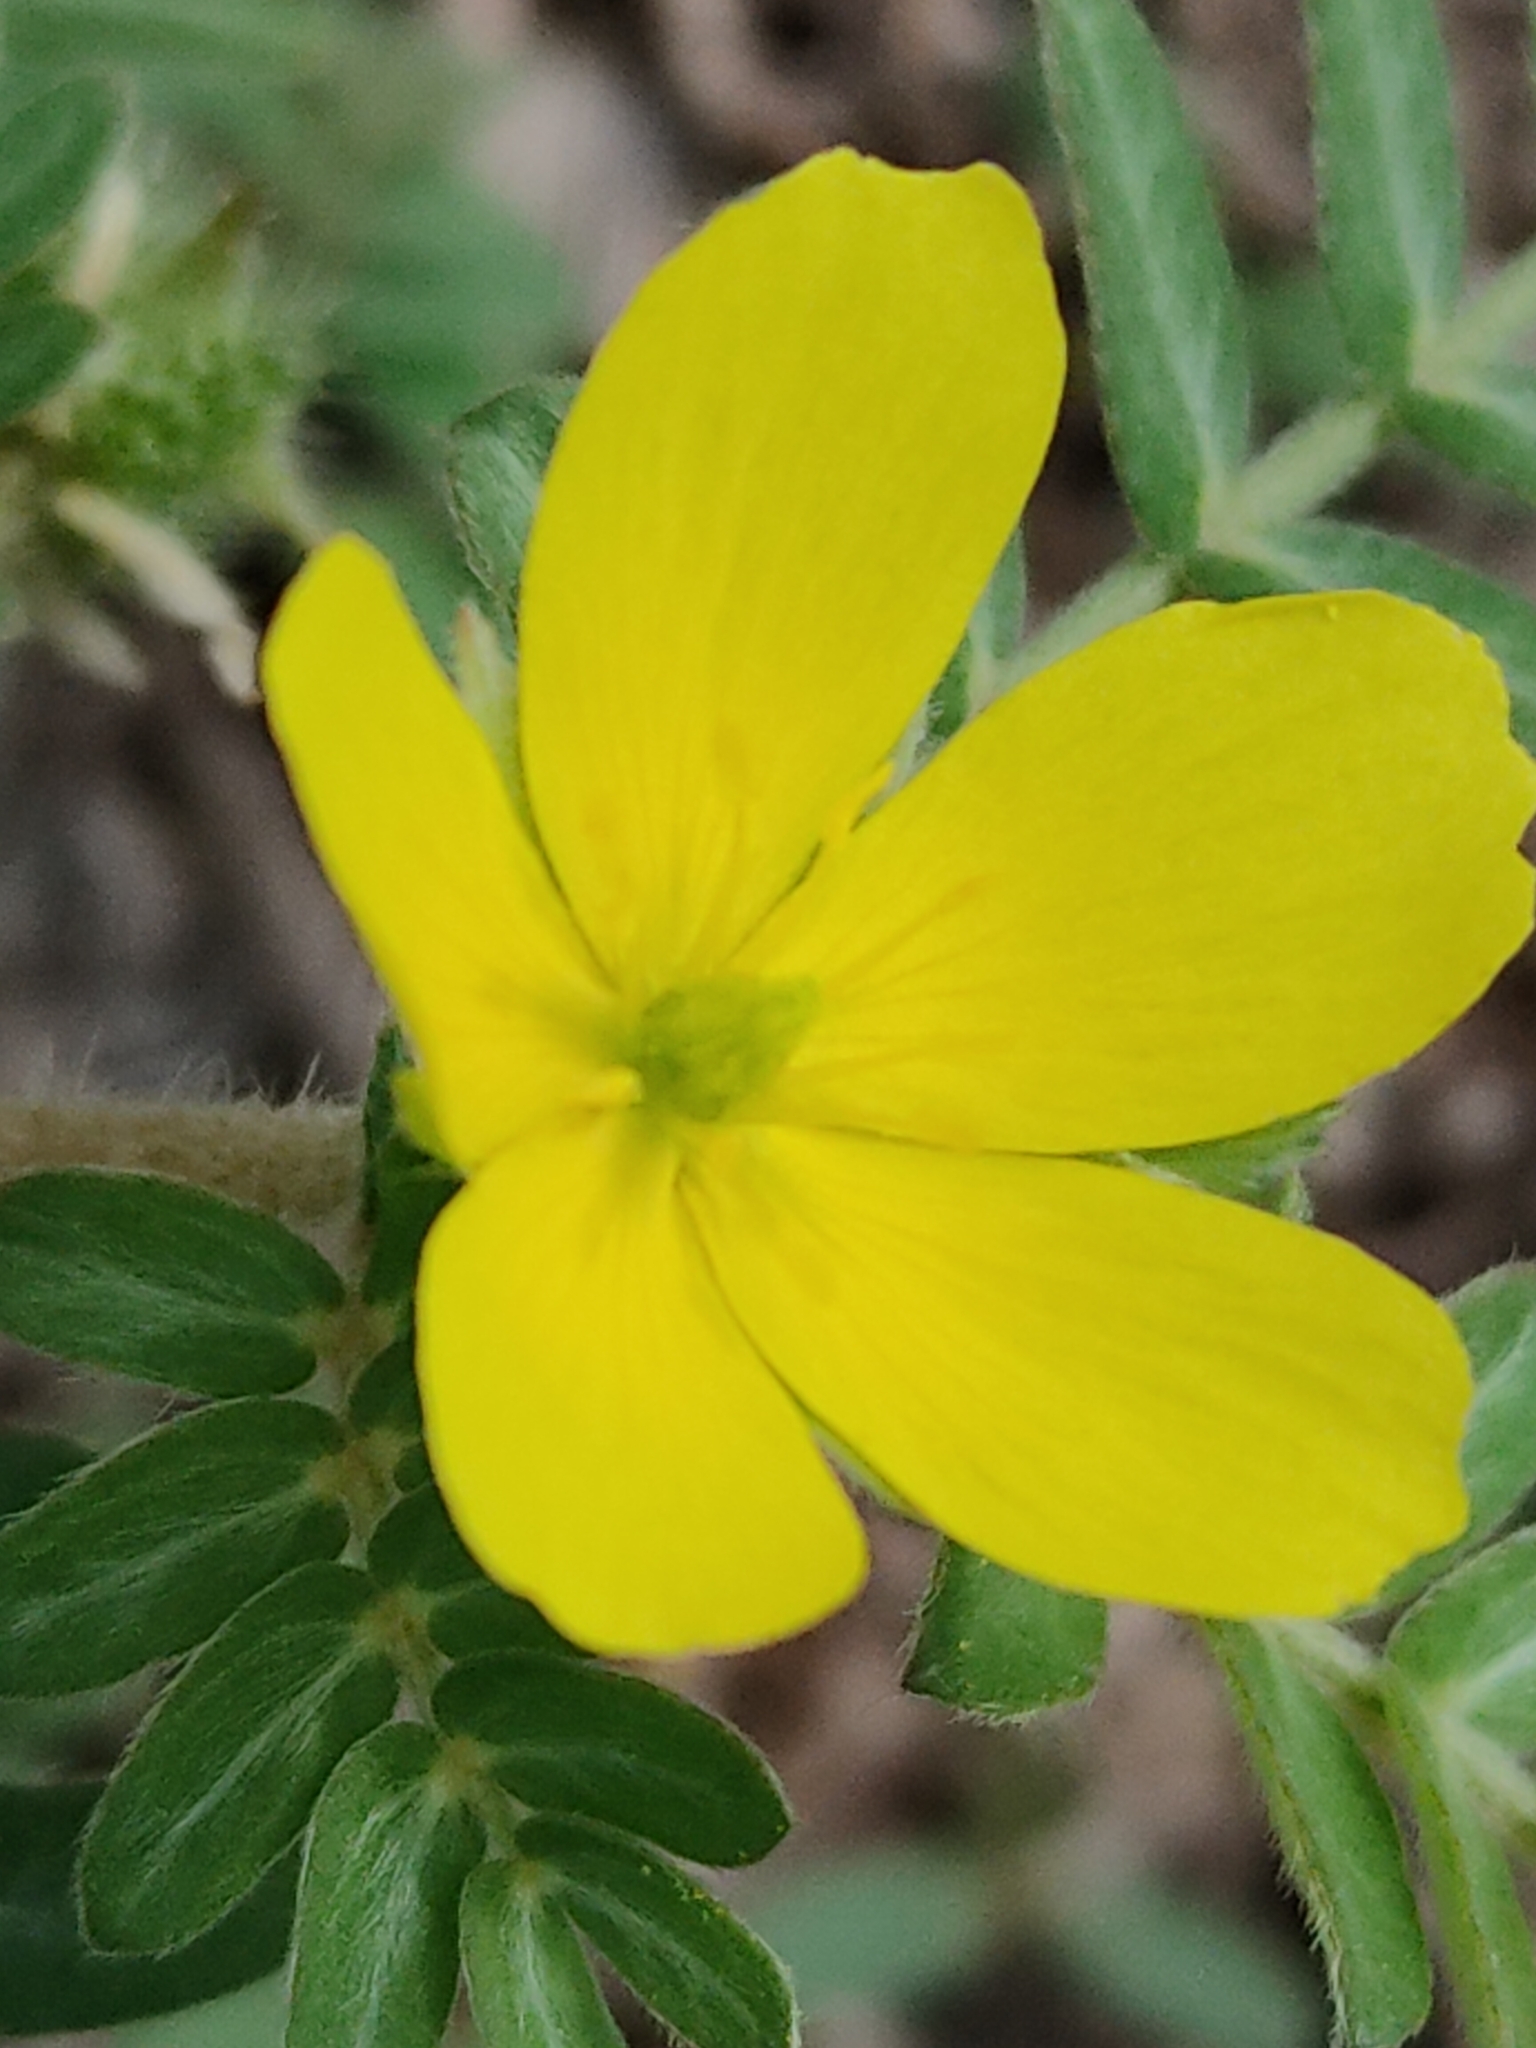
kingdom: Plantae
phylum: Tracheophyta
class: Magnoliopsida
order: Zygophyllales
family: Zygophyllaceae
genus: Tribulus
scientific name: Tribulus terrestris
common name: Puncturevine
